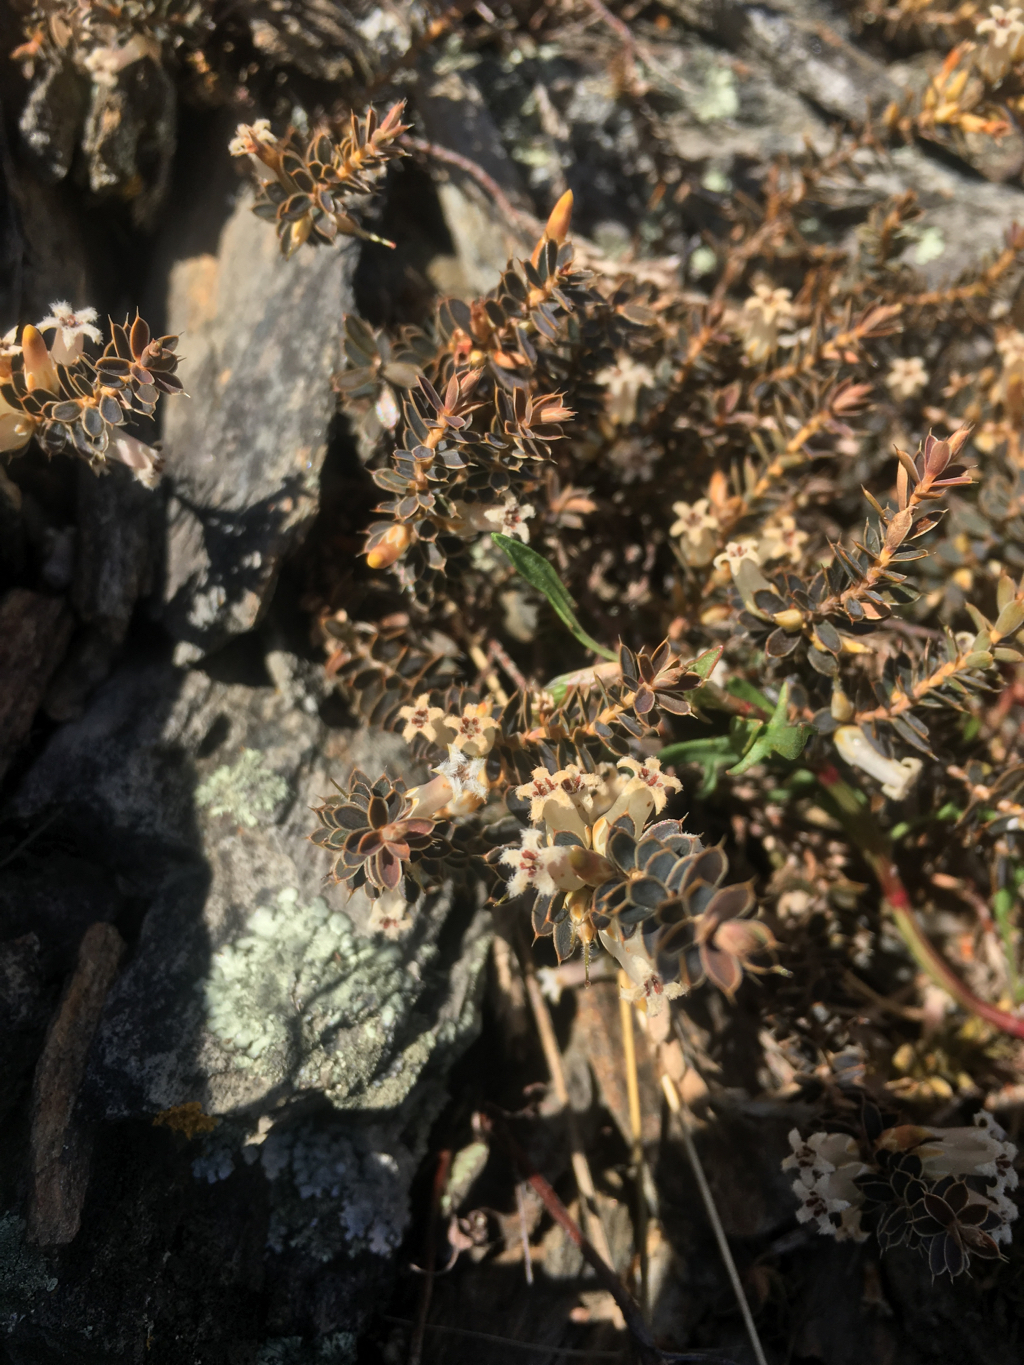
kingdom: Plantae
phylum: Tracheophyta
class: Magnoliopsida
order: Ericales
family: Ericaceae
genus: Styphelia
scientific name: Styphelia nesophila
